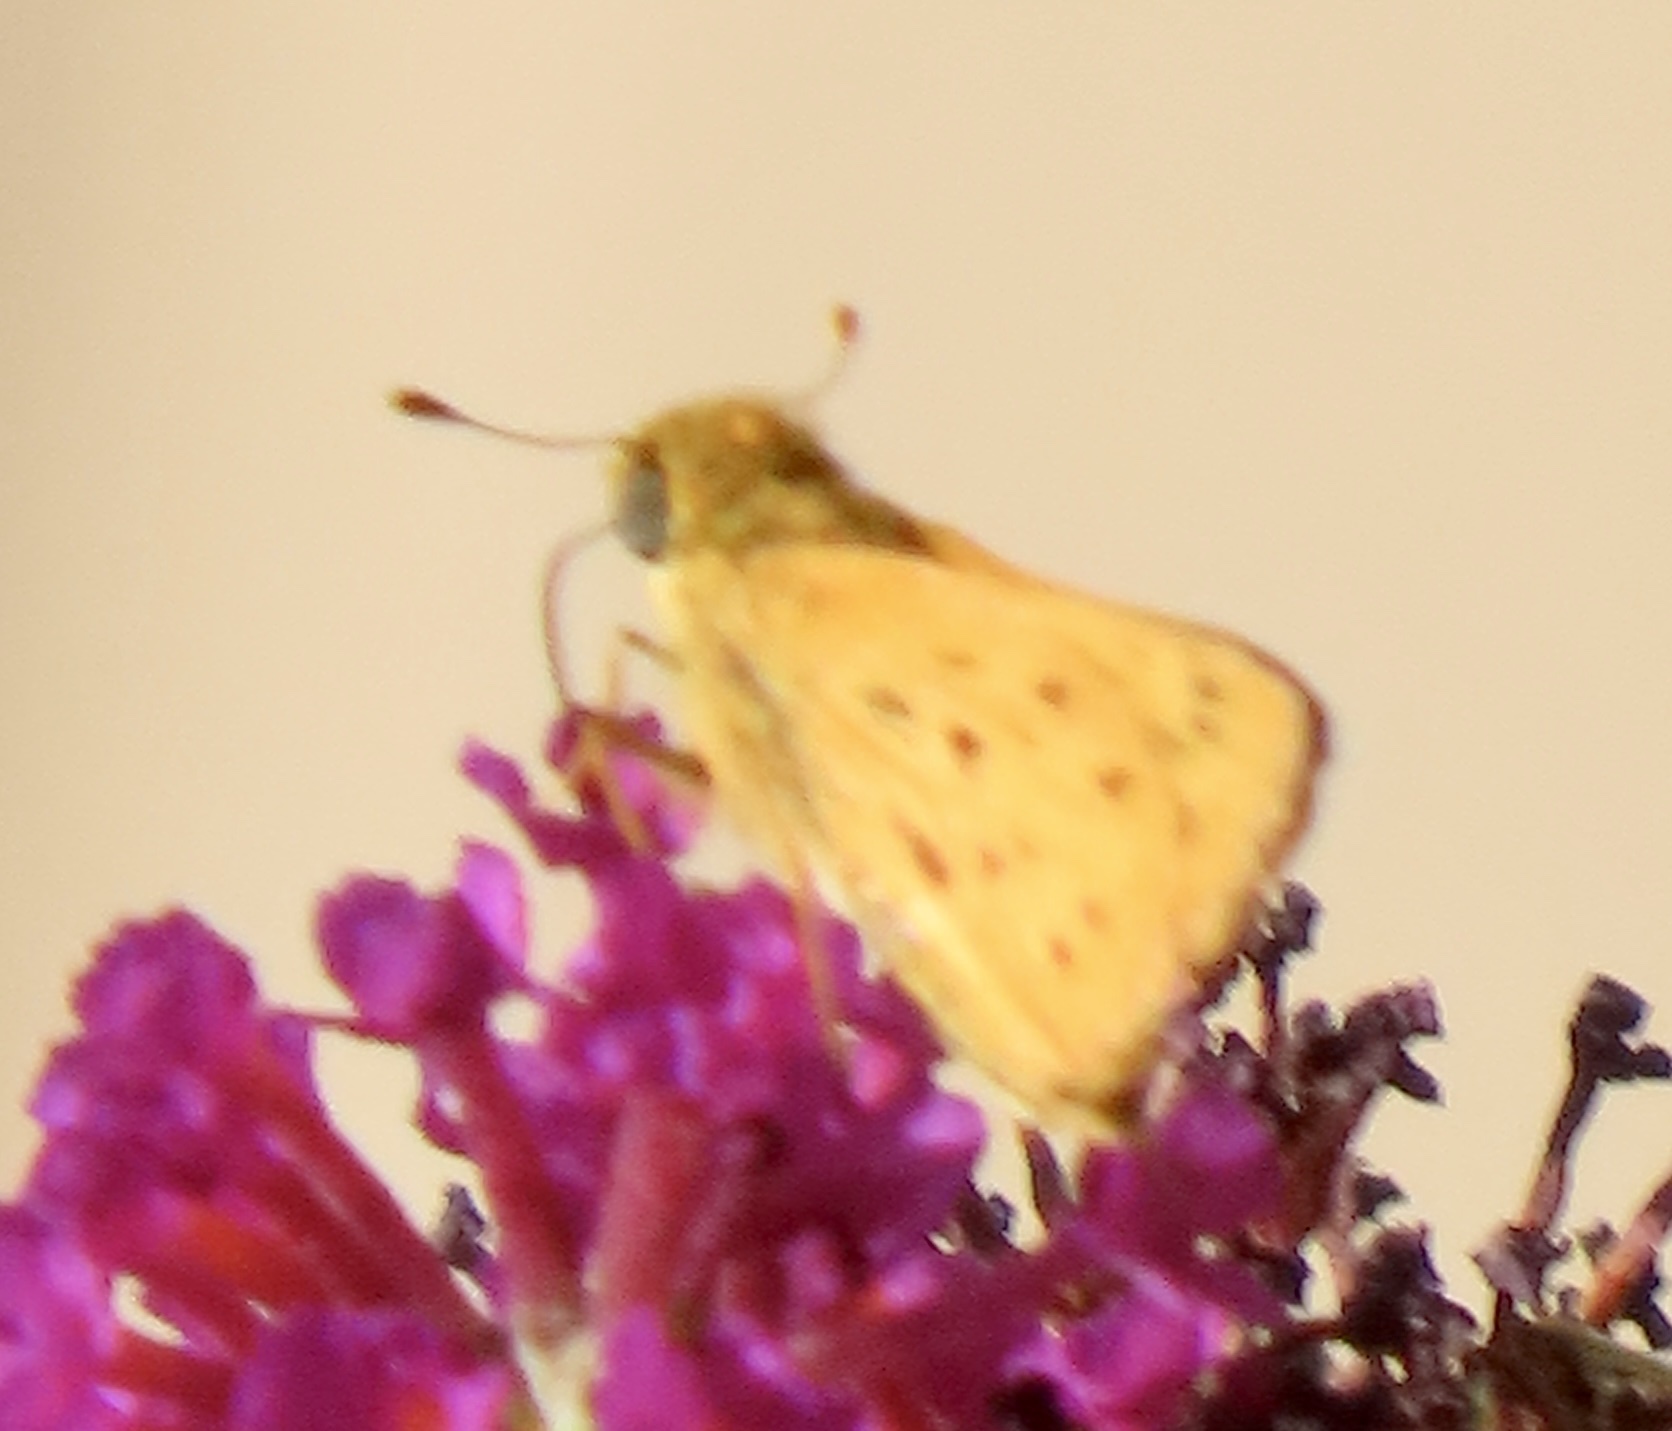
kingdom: Animalia
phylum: Arthropoda
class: Insecta
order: Lepidoptera
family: Hesperiidae
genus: Hylephila
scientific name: Hylephila phyleus
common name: Fiery skipper
